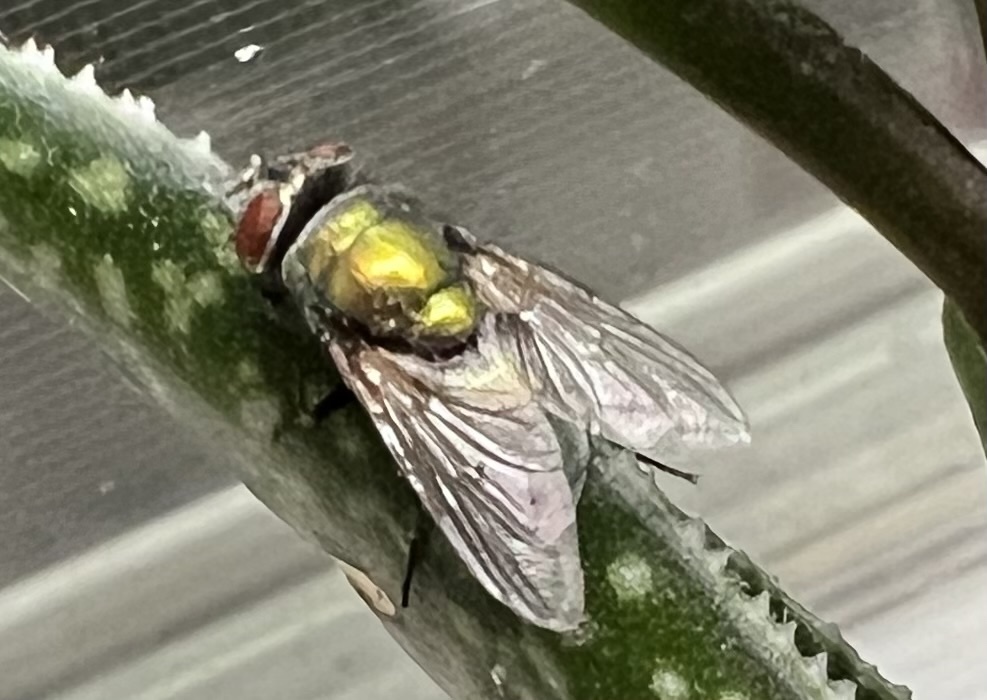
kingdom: Animalia
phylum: Arthropoda
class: Insecta
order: Diptera
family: Calliphoridae
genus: Lucilia
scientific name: Lucilia sericata
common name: Blow fly
